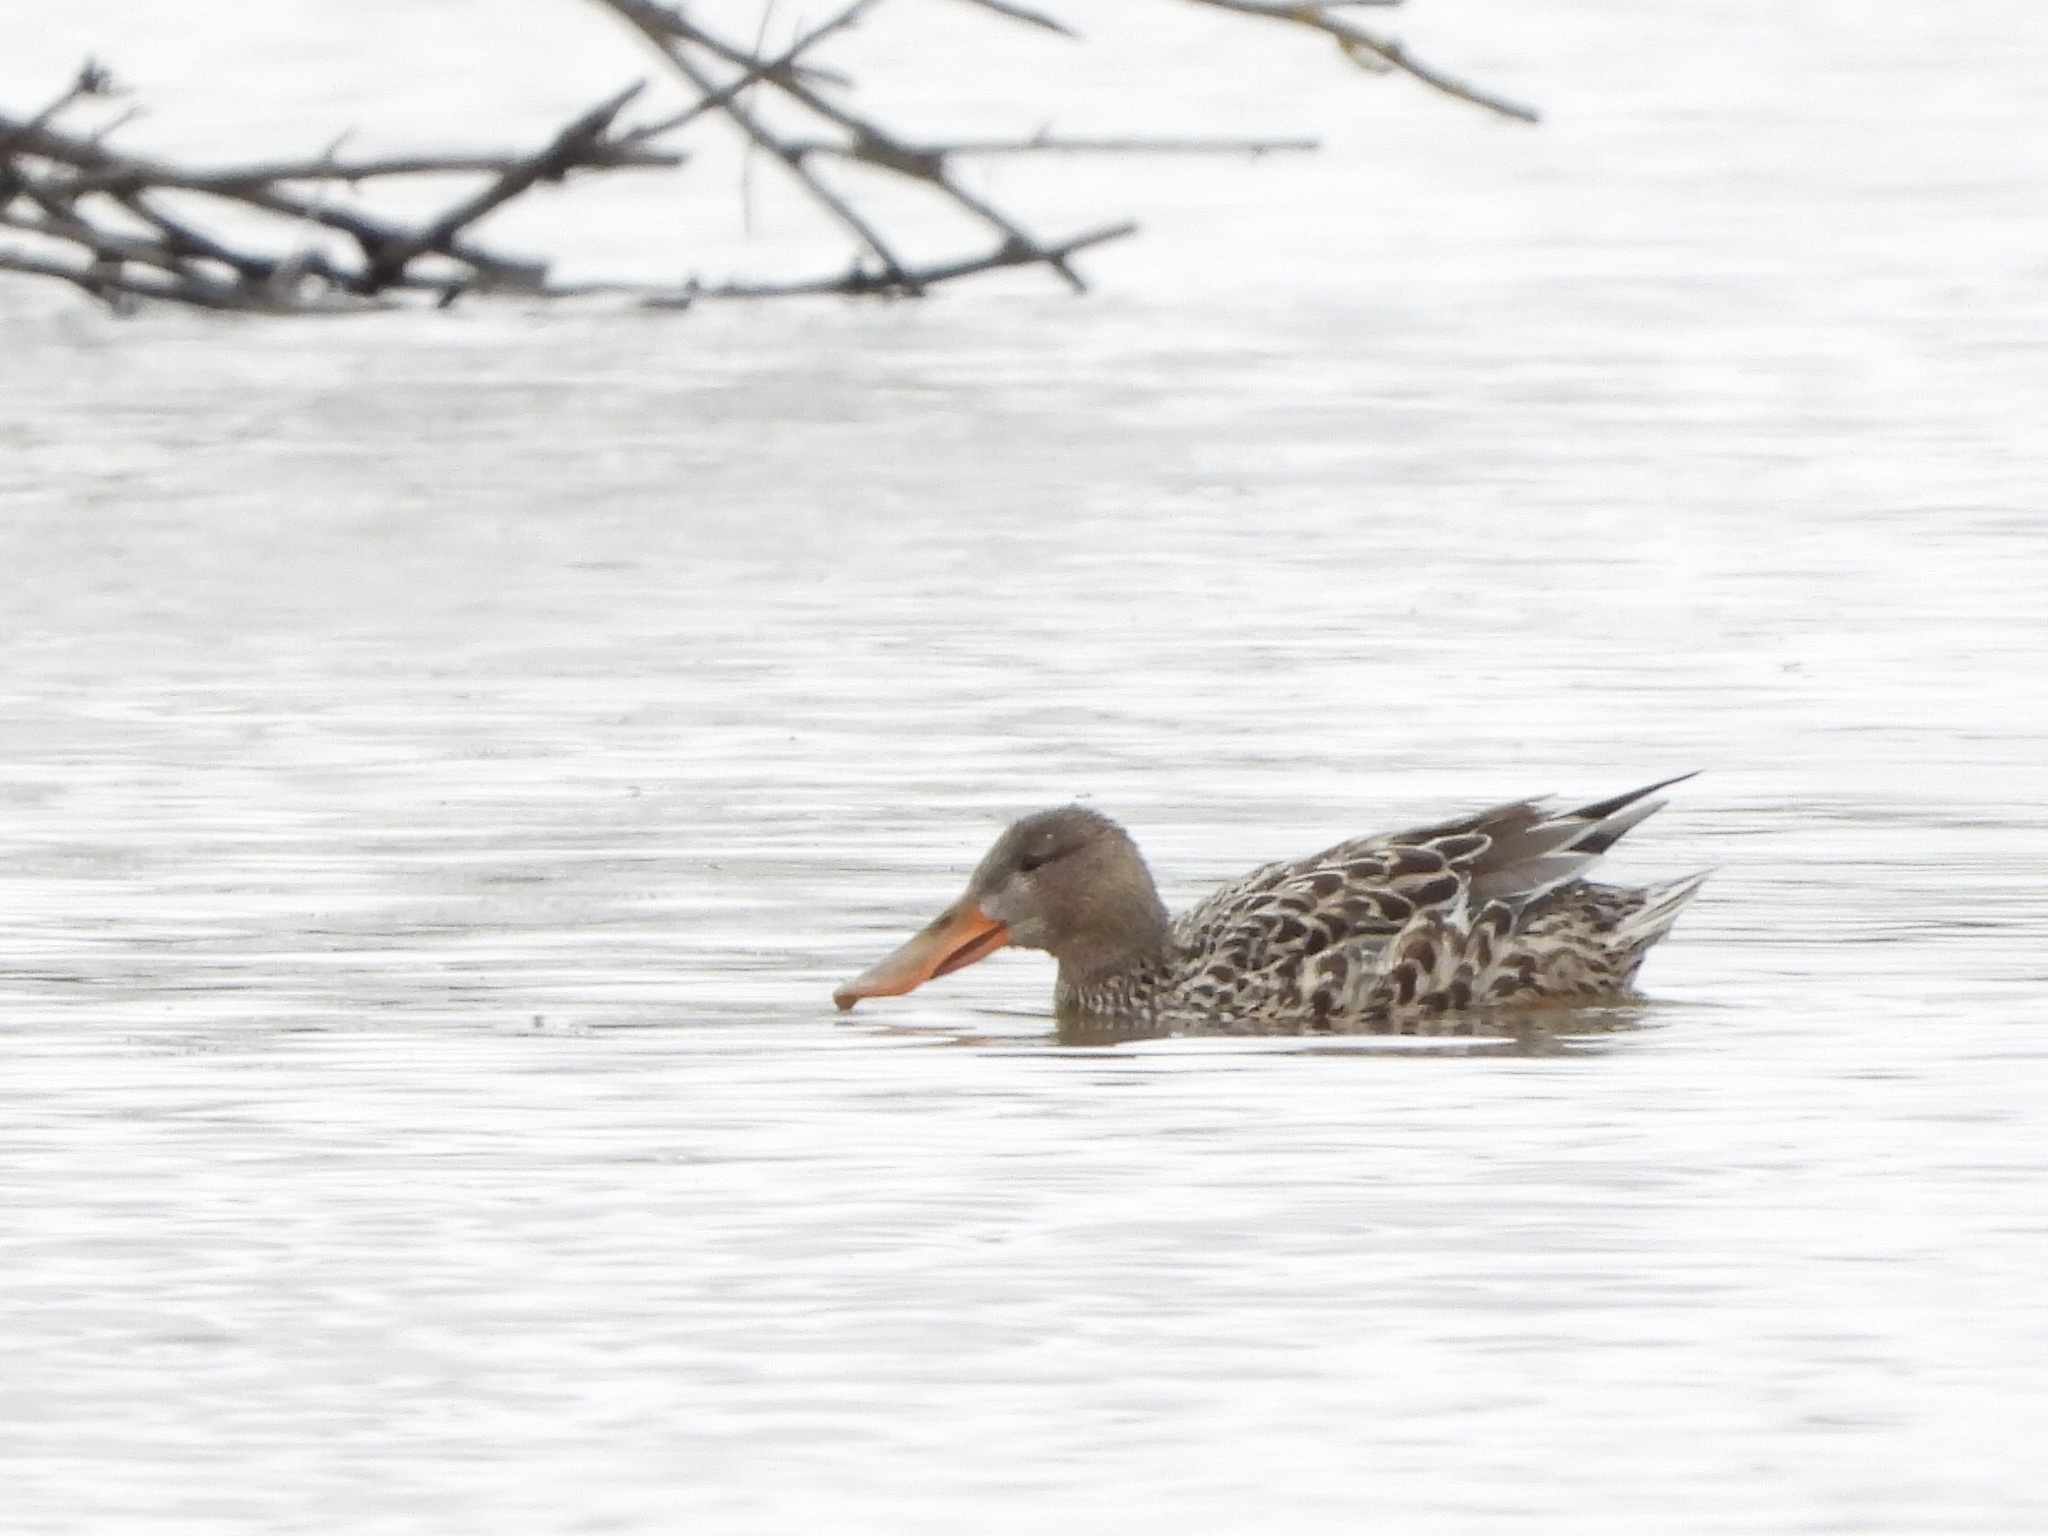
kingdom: Animalia
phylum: Chordata
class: Aves
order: Anseriformes
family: Anatidae
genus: Spatula
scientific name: Spatula clypeata
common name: Northern shoveler
